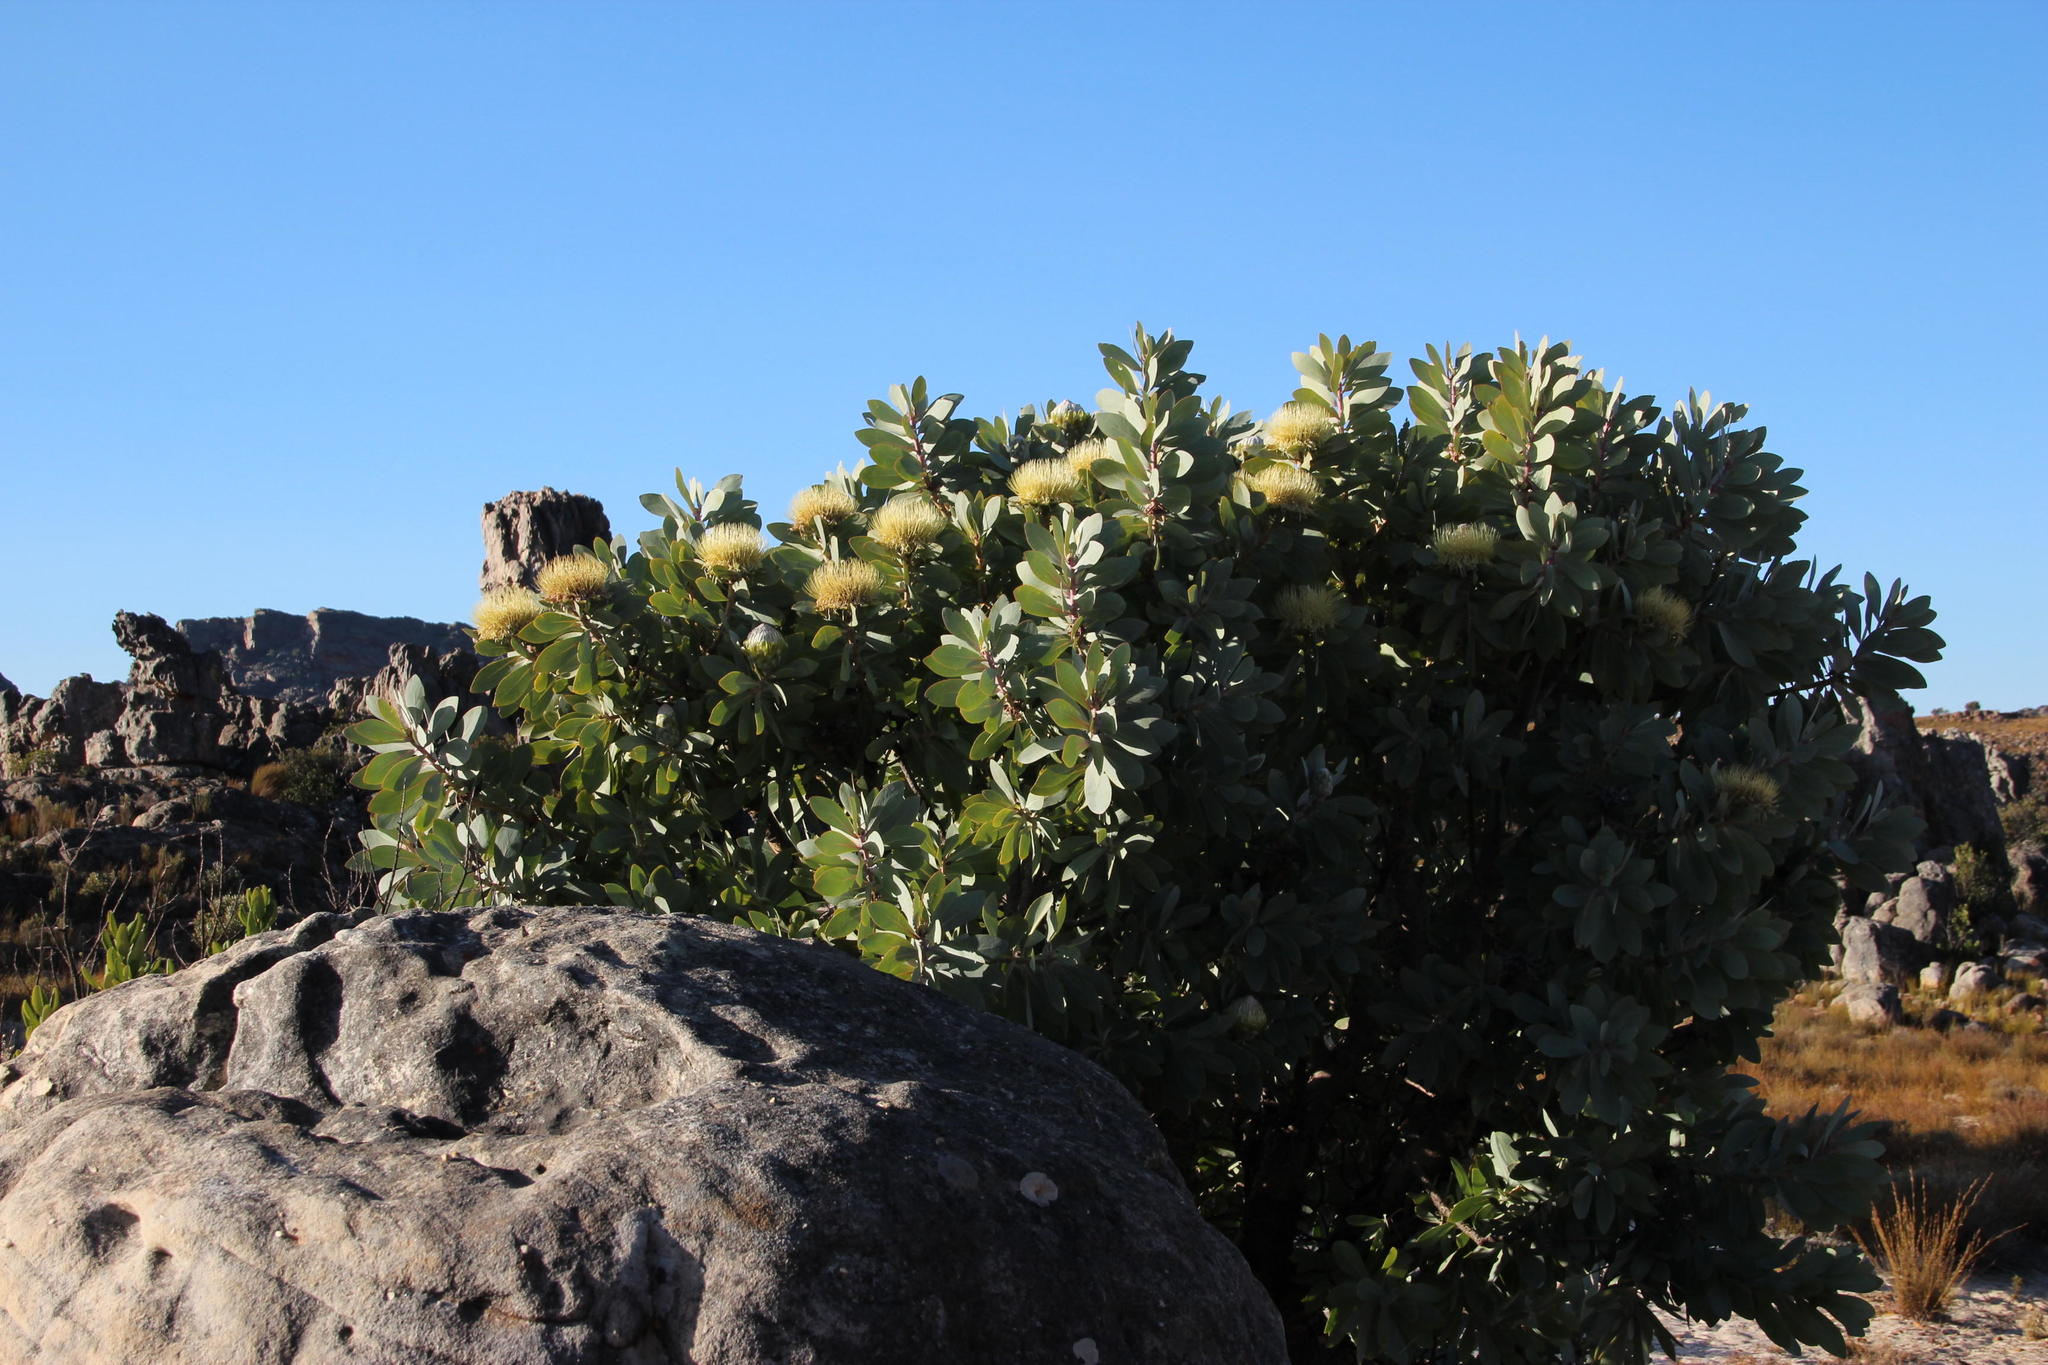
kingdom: Plantae
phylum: Tracheophyta
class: Magnoliopsida
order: Proteales
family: Proteaceae
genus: Protea
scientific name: Protea nitida
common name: Tree protea
